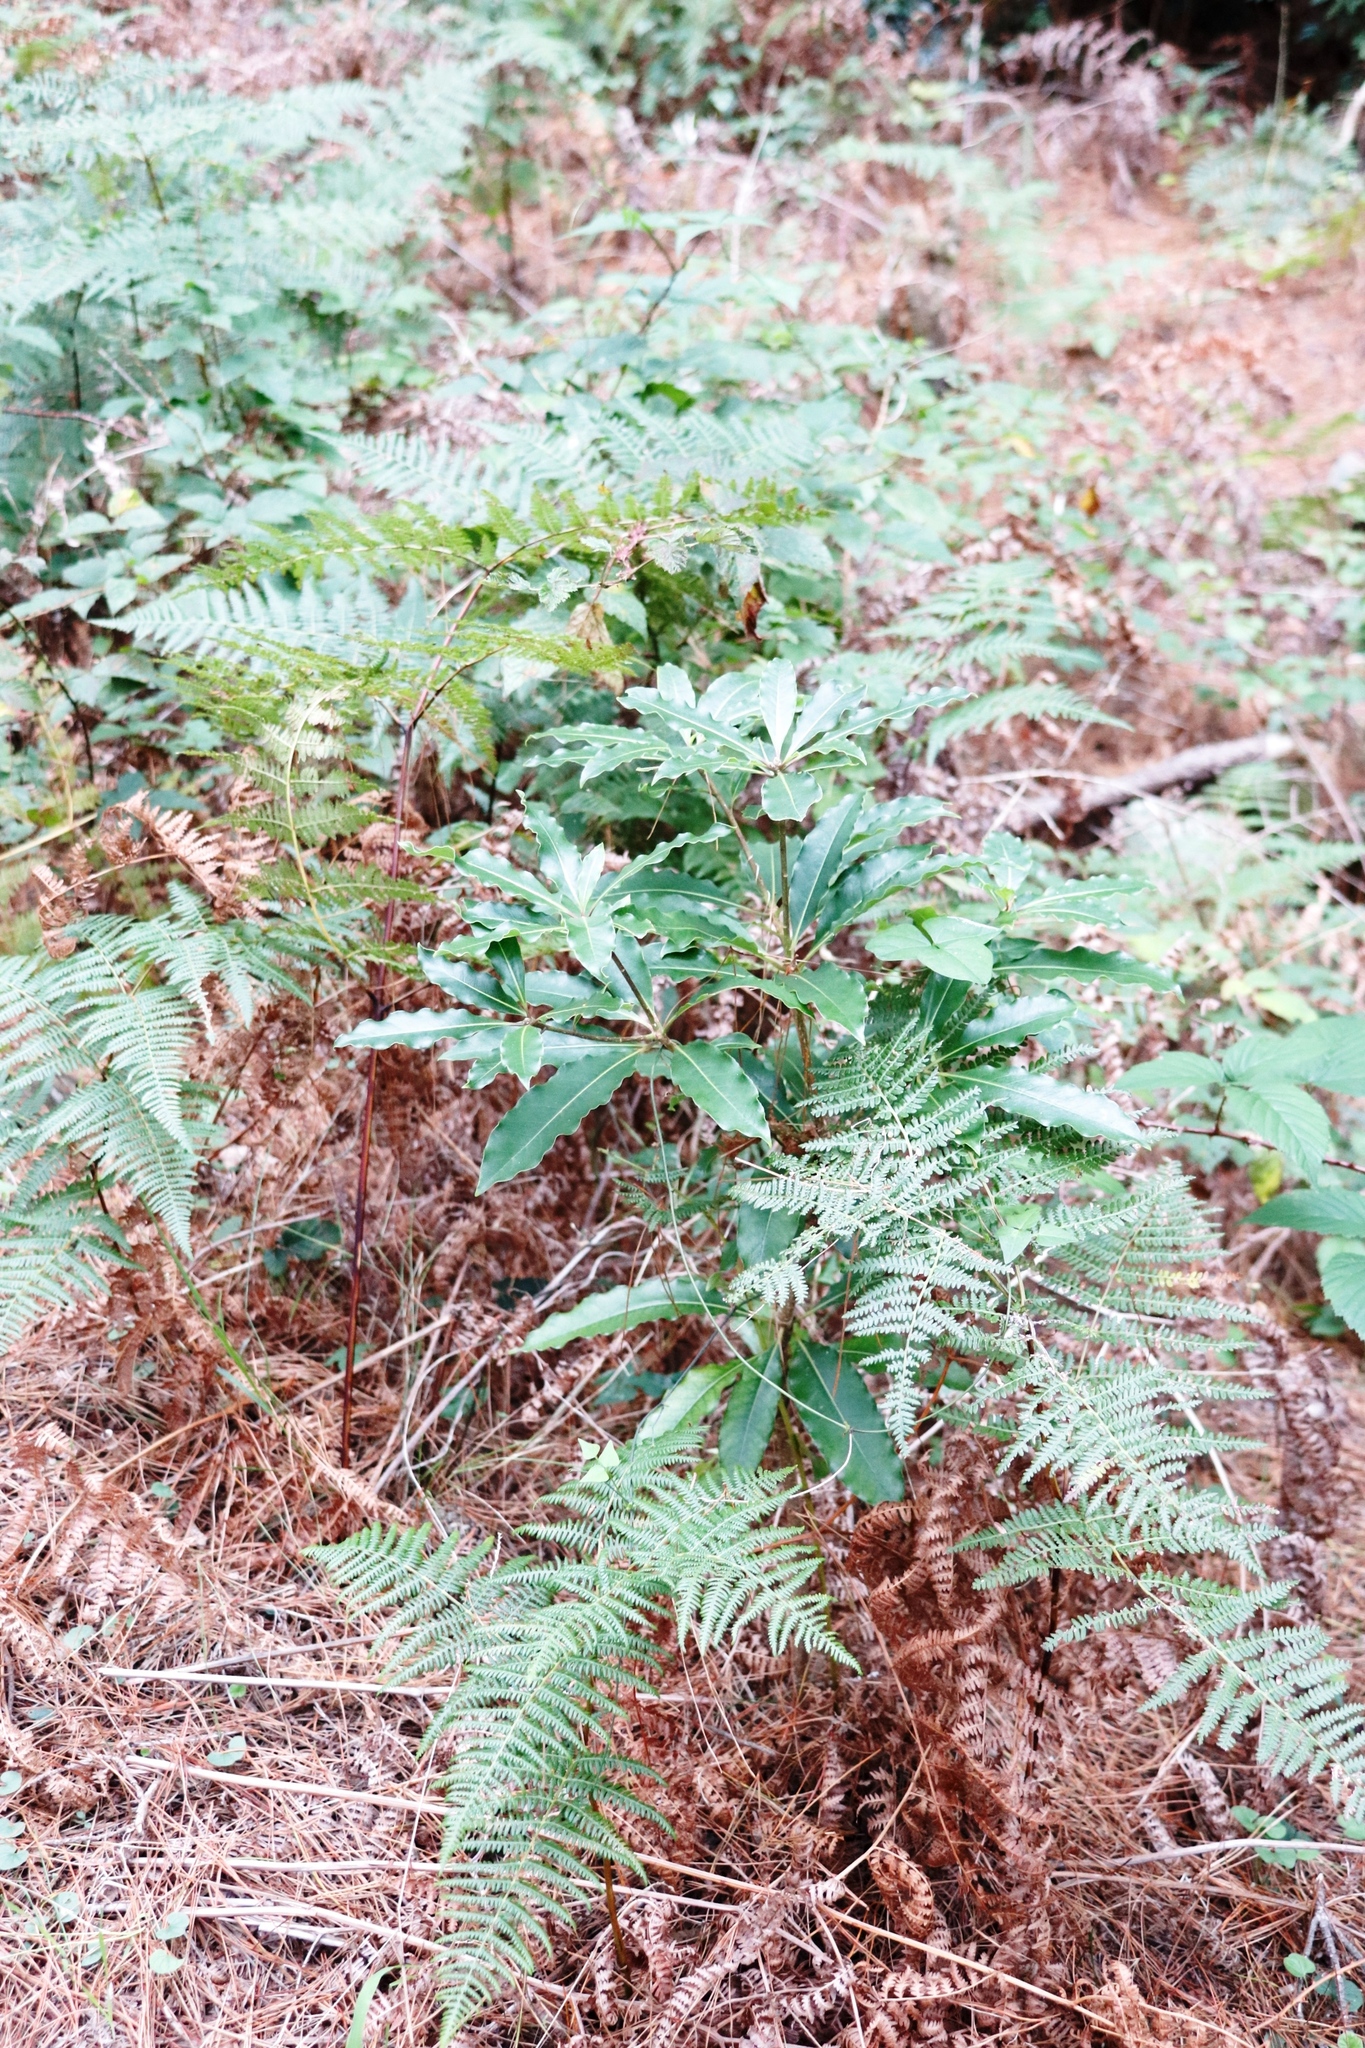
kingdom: Plantae
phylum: Tracheophyta
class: Magnoliopsida
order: Apiales
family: Pittosporaceae
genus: Pittosporum
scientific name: Pittosporum undulatum
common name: Australian cheesewood
